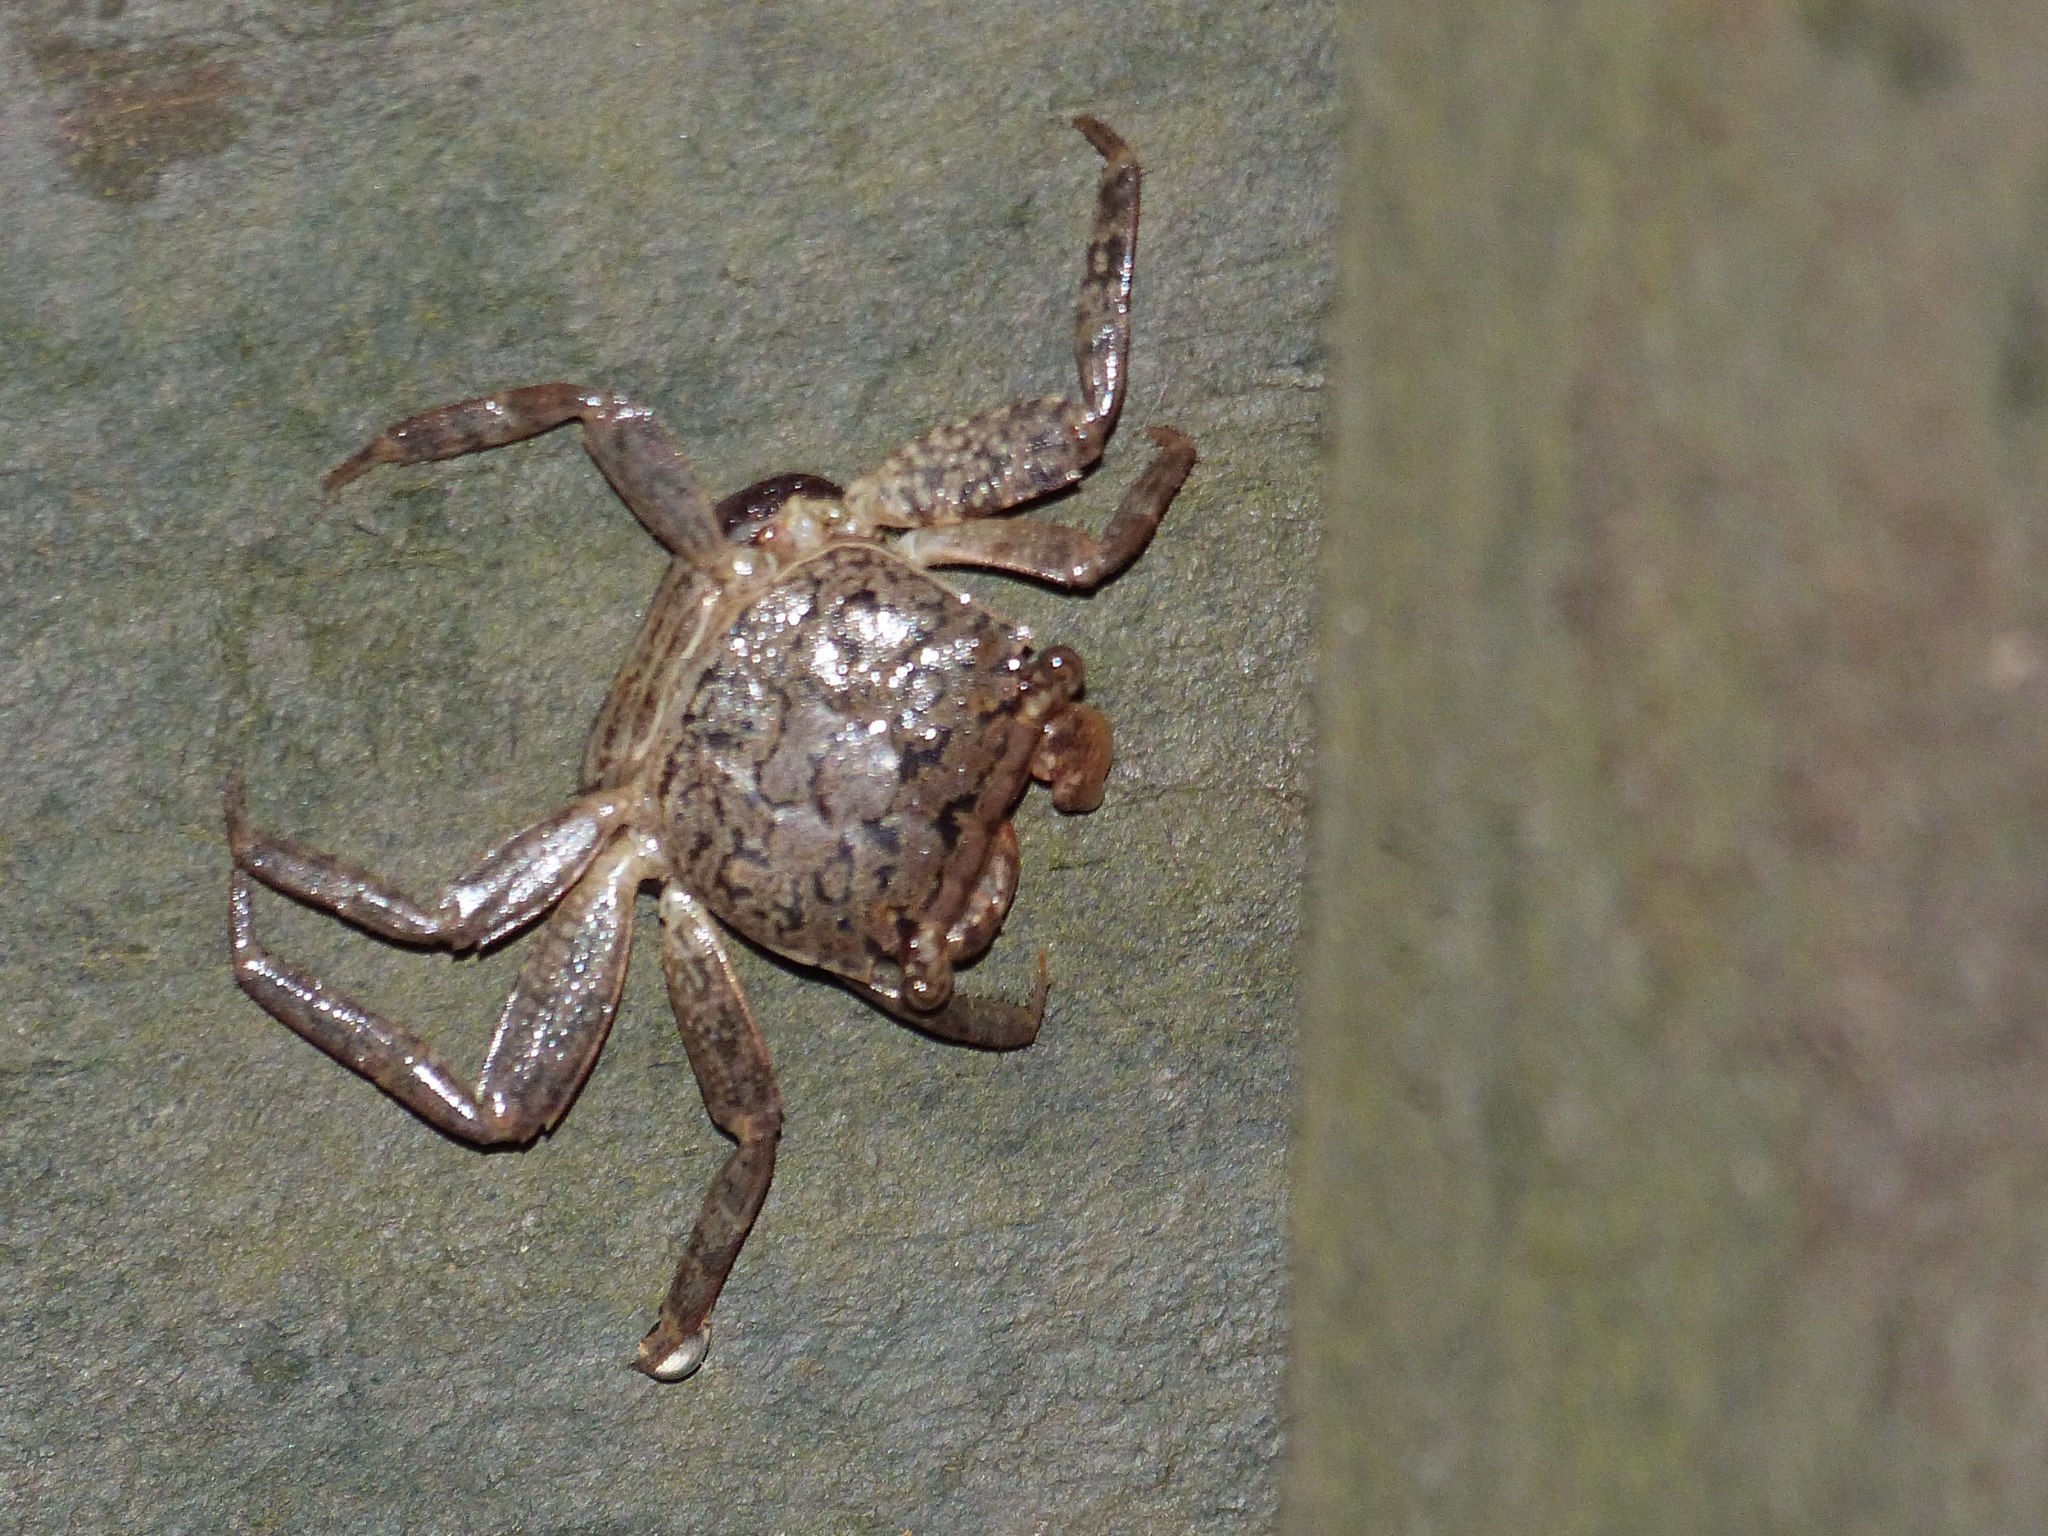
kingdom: Animalia
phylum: Arthropoda
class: Malacostraca
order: Decapoda
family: Sesarmidae
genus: Armases
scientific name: Armases cinereum
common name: Squareback marsh crab
